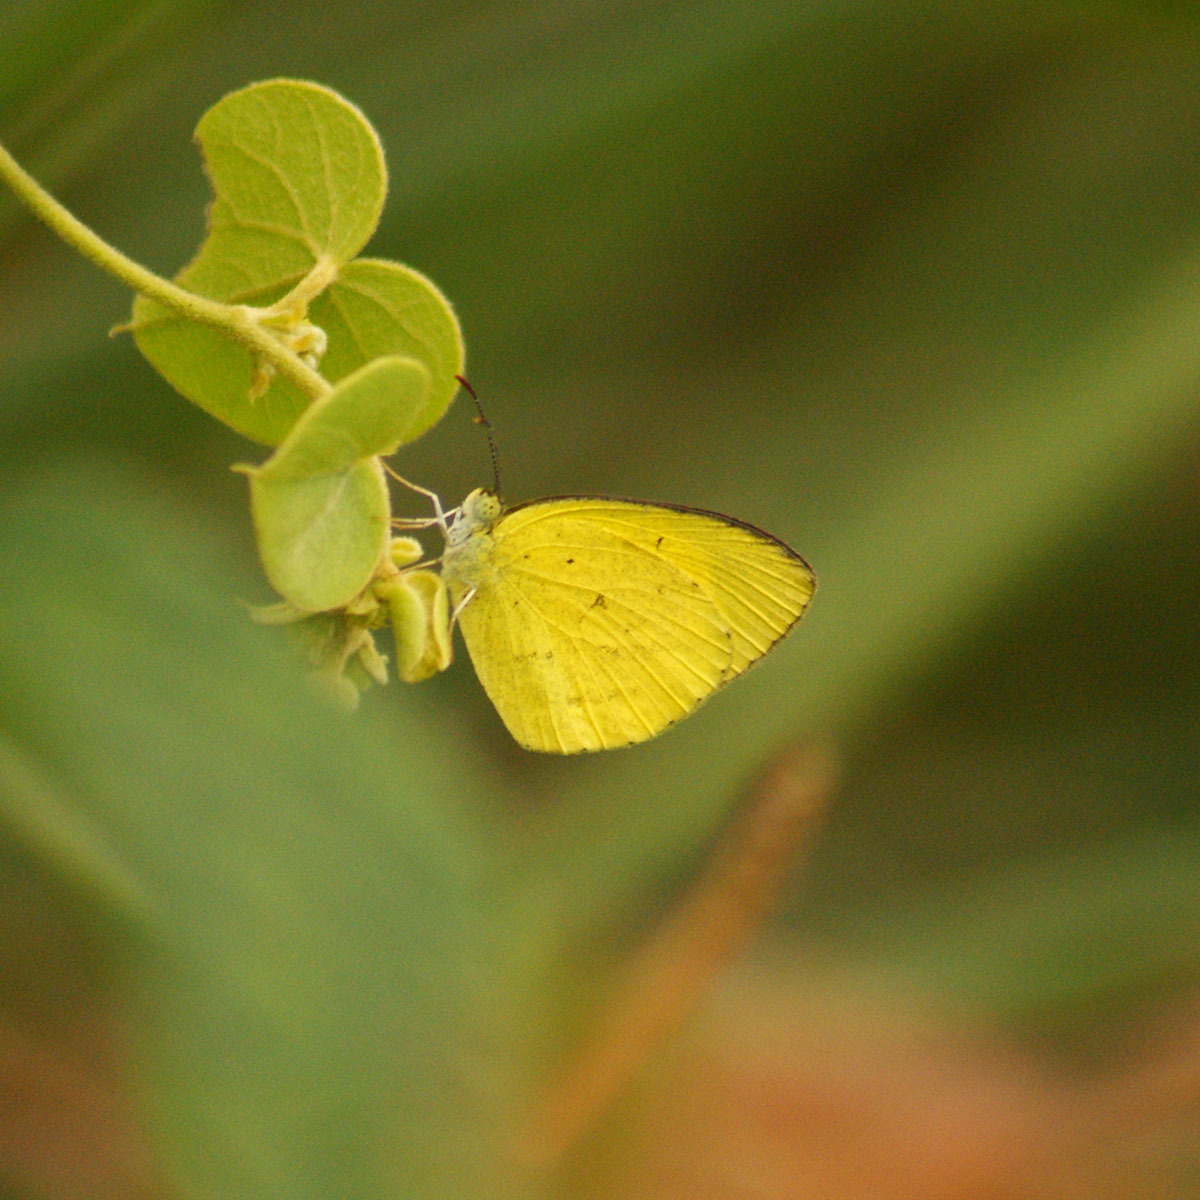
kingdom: Animalia
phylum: Arthropoda
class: Insecta
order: Lepidoptera
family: Pieridae
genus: Eurema
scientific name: Eurema brigitta
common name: Small grass yellow
